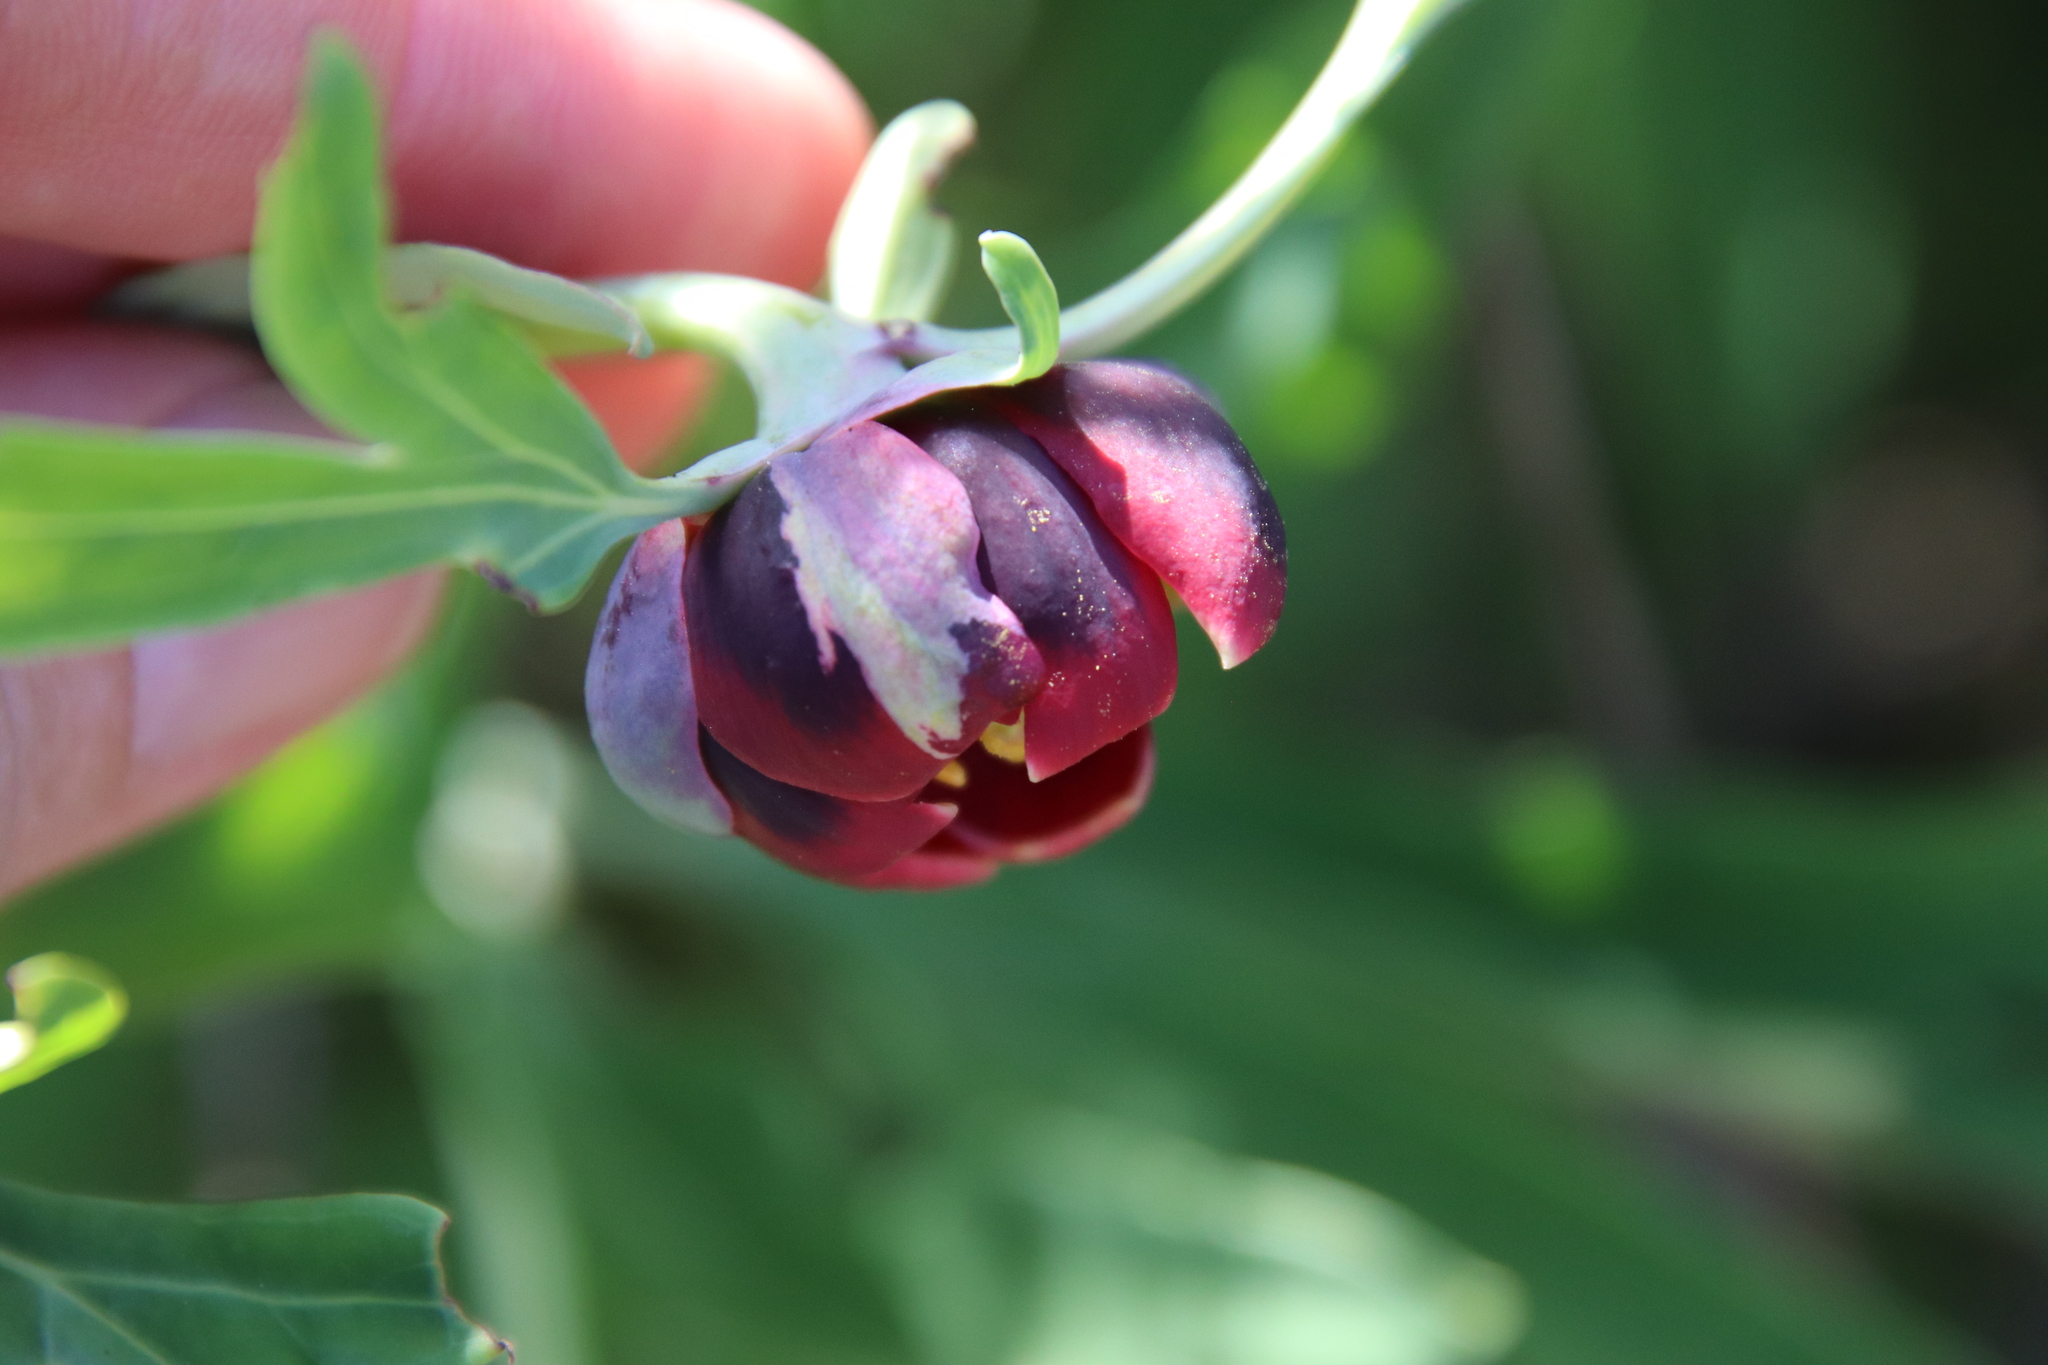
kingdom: Plantae
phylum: Tracheophyta
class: Magnoliopsida
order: Saxifragales
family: Paeoniaceae
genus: Paeonia
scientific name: Paeonia californica
